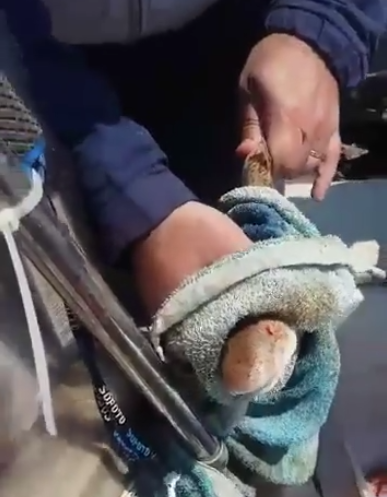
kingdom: Animalia
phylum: Chordata
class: Elasmobranchii
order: Carcharhiniformes
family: Scyliorhinidae
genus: Scyliorhinus
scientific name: Scyliorhinus canicula
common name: Lesser spotted dogfish
